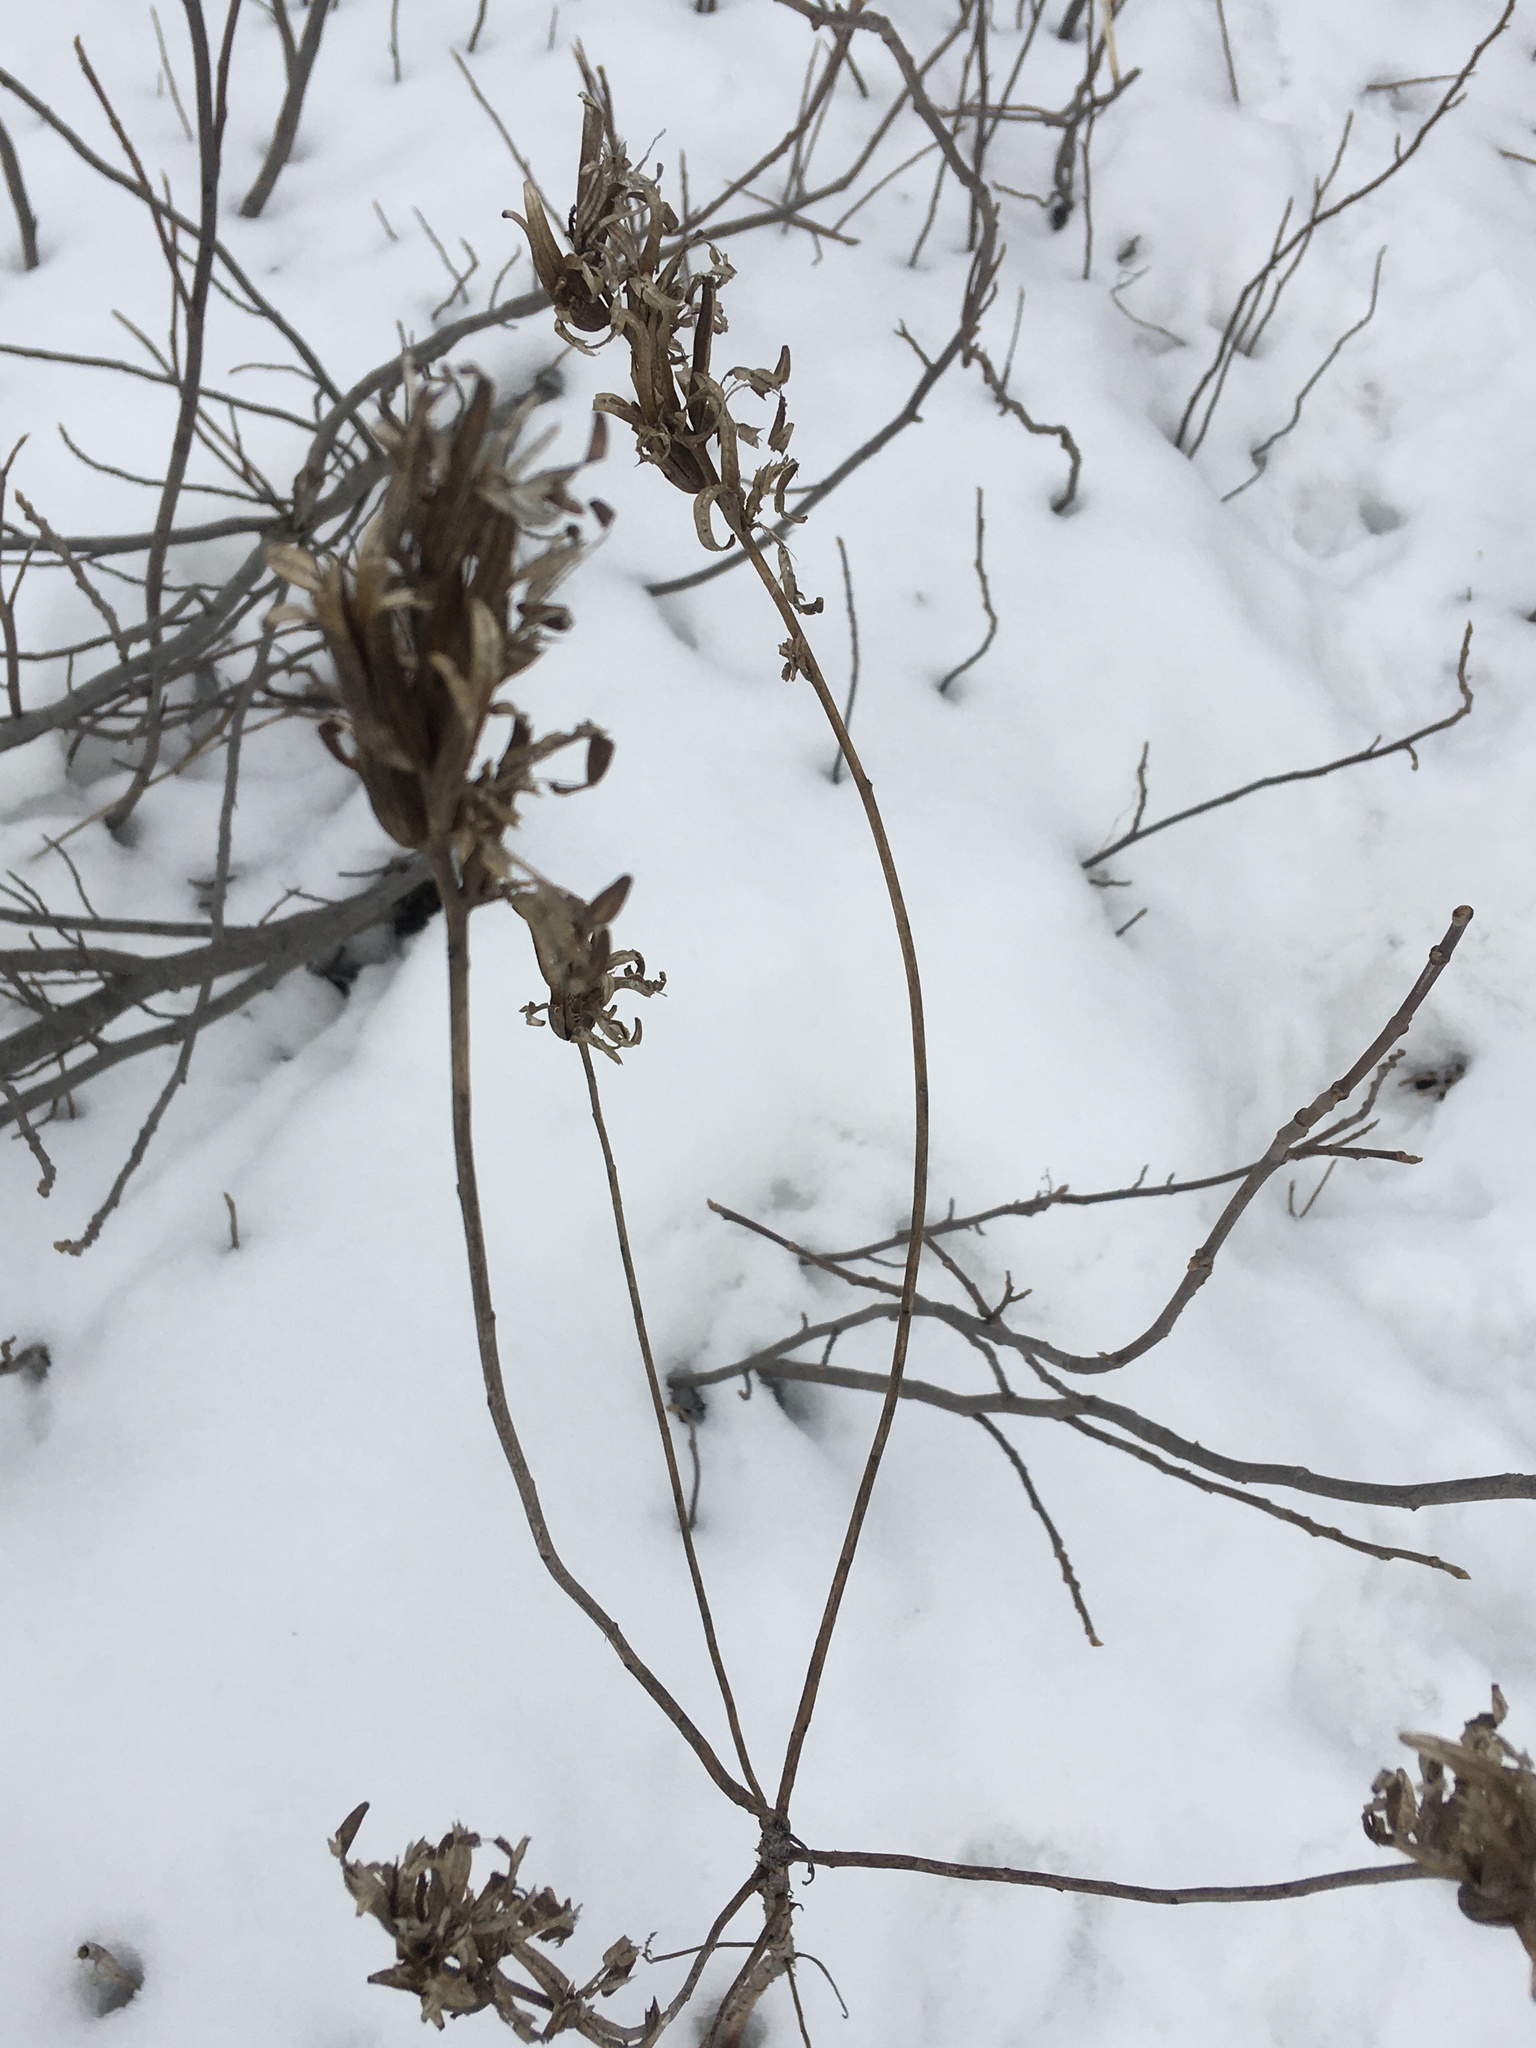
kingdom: Plantae
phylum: Tracheophyta
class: Magnoliopsida
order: Myrtales
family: Onagraceae
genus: Oenothera
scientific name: Oenothera biennis
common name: Common evening-primrose
